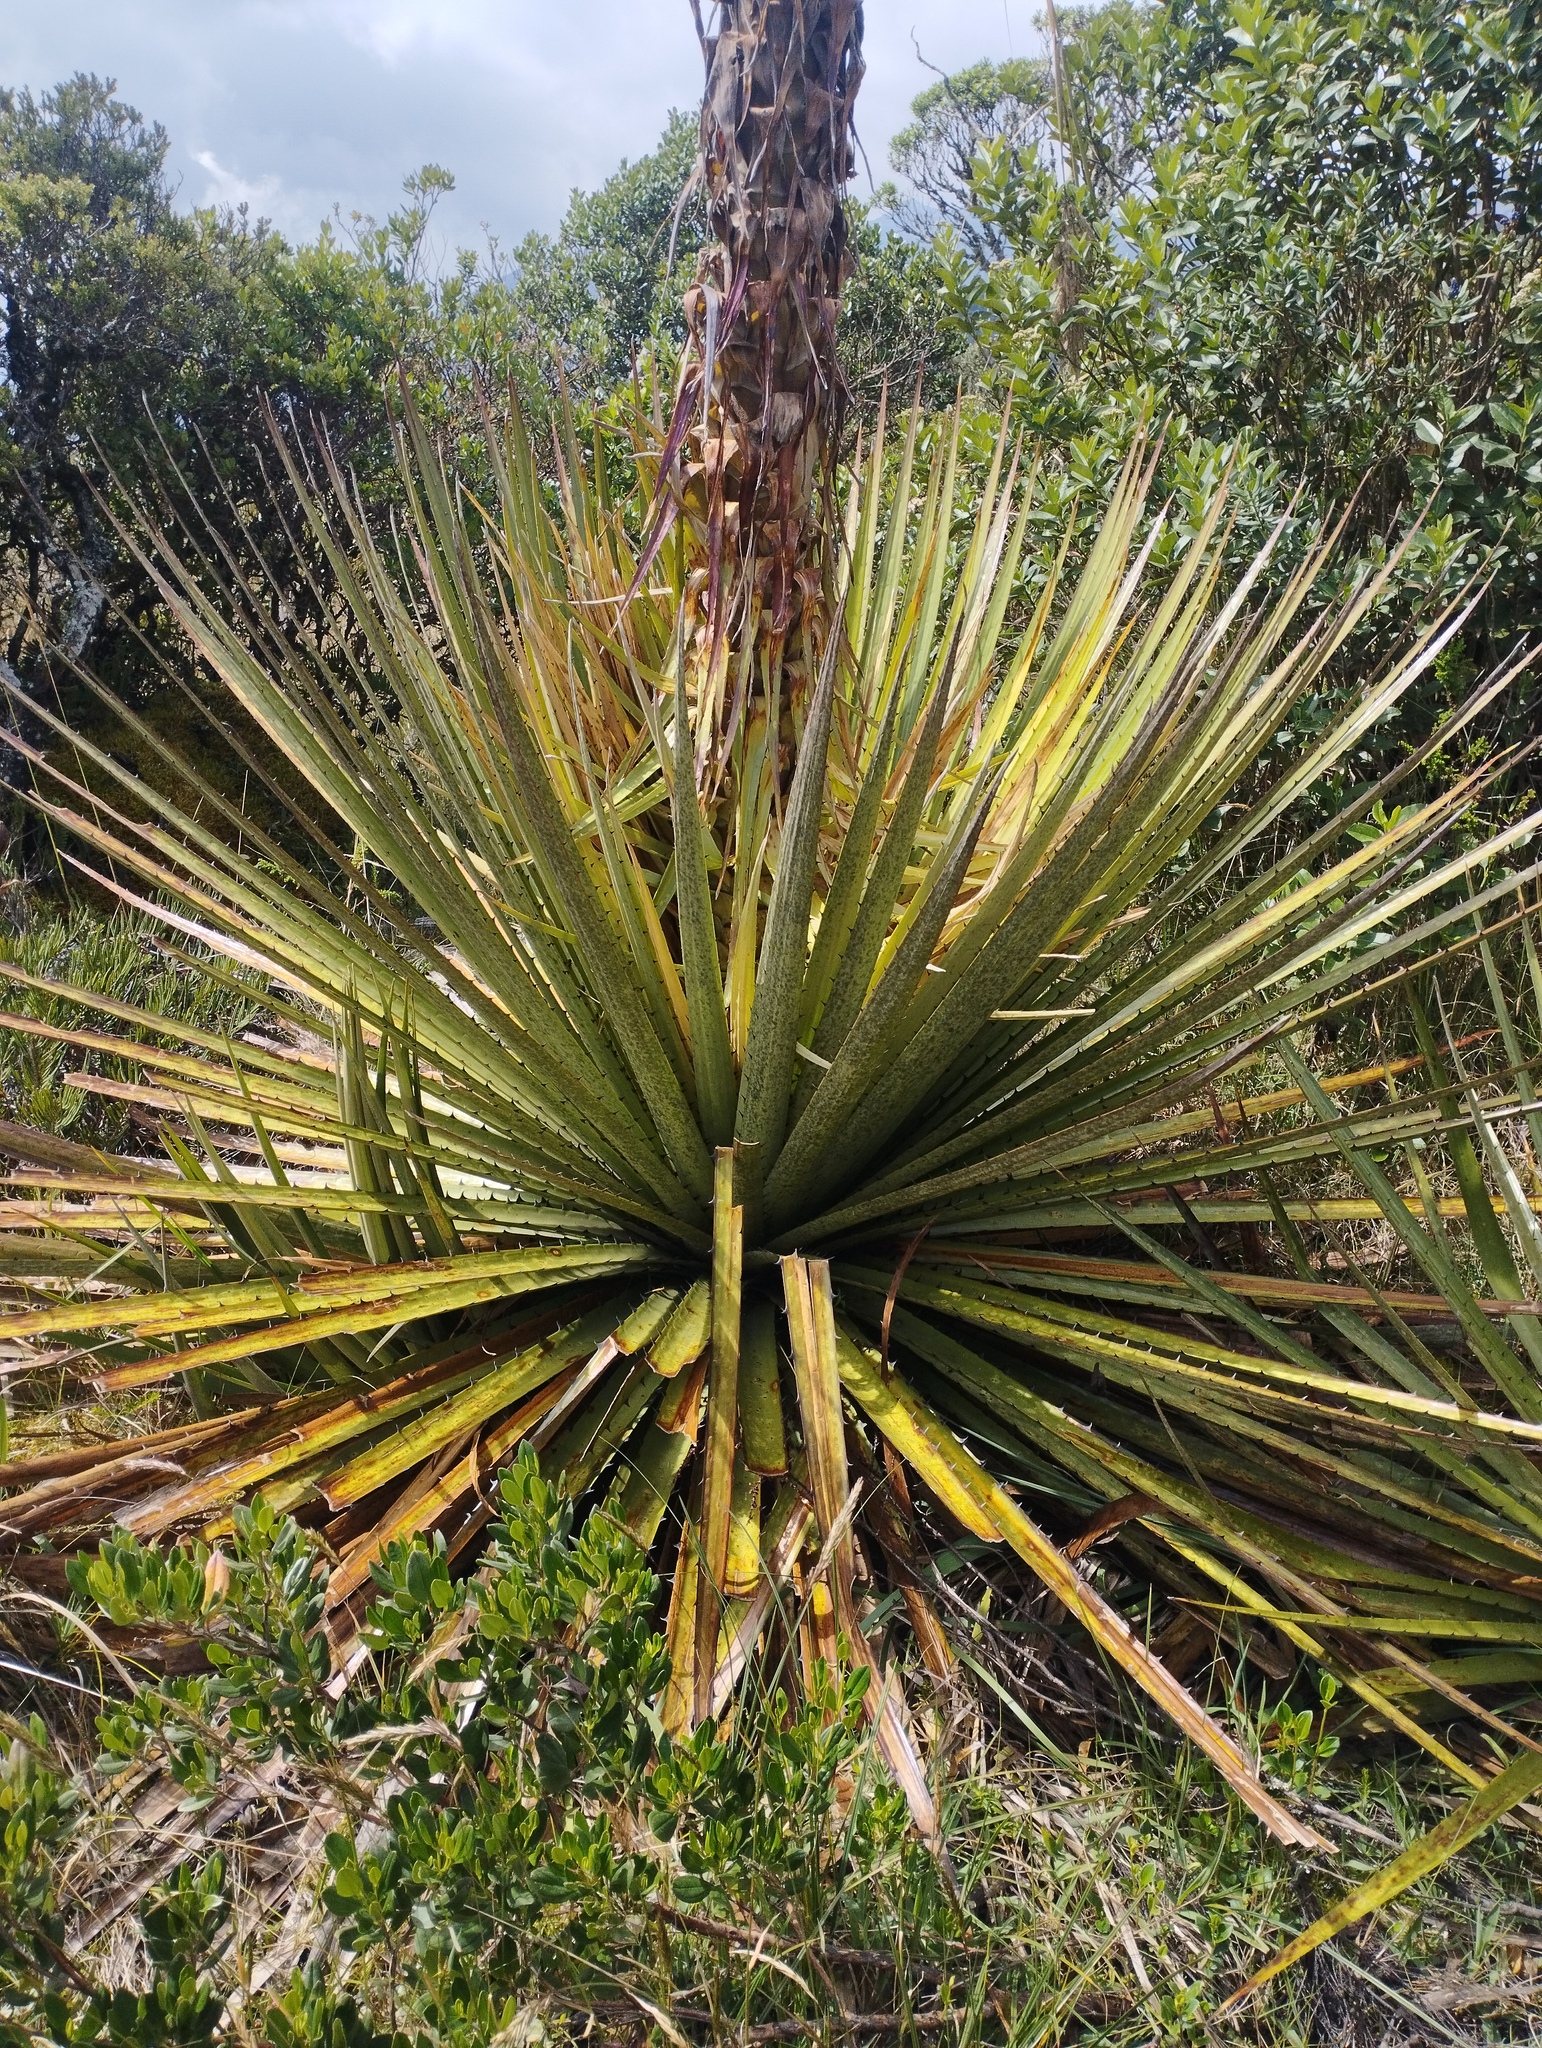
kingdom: Plantae
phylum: Tracheophyta
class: Liliopsida
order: Poales
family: Bromeliaceae
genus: Puya
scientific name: Puya goudotiana
